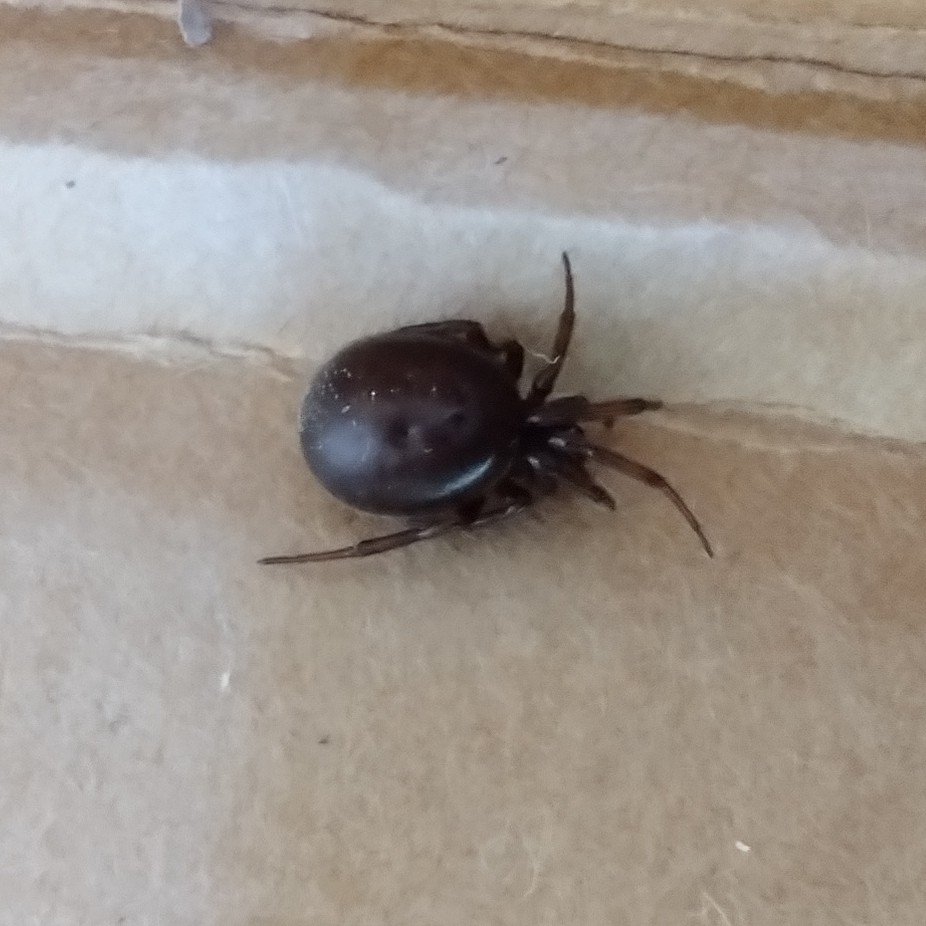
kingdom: Animalia
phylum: Arthropoda
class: Arachnida
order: Araneae
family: Theridiidae
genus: Steatoda
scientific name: Steatoda bipunctata
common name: False widow
